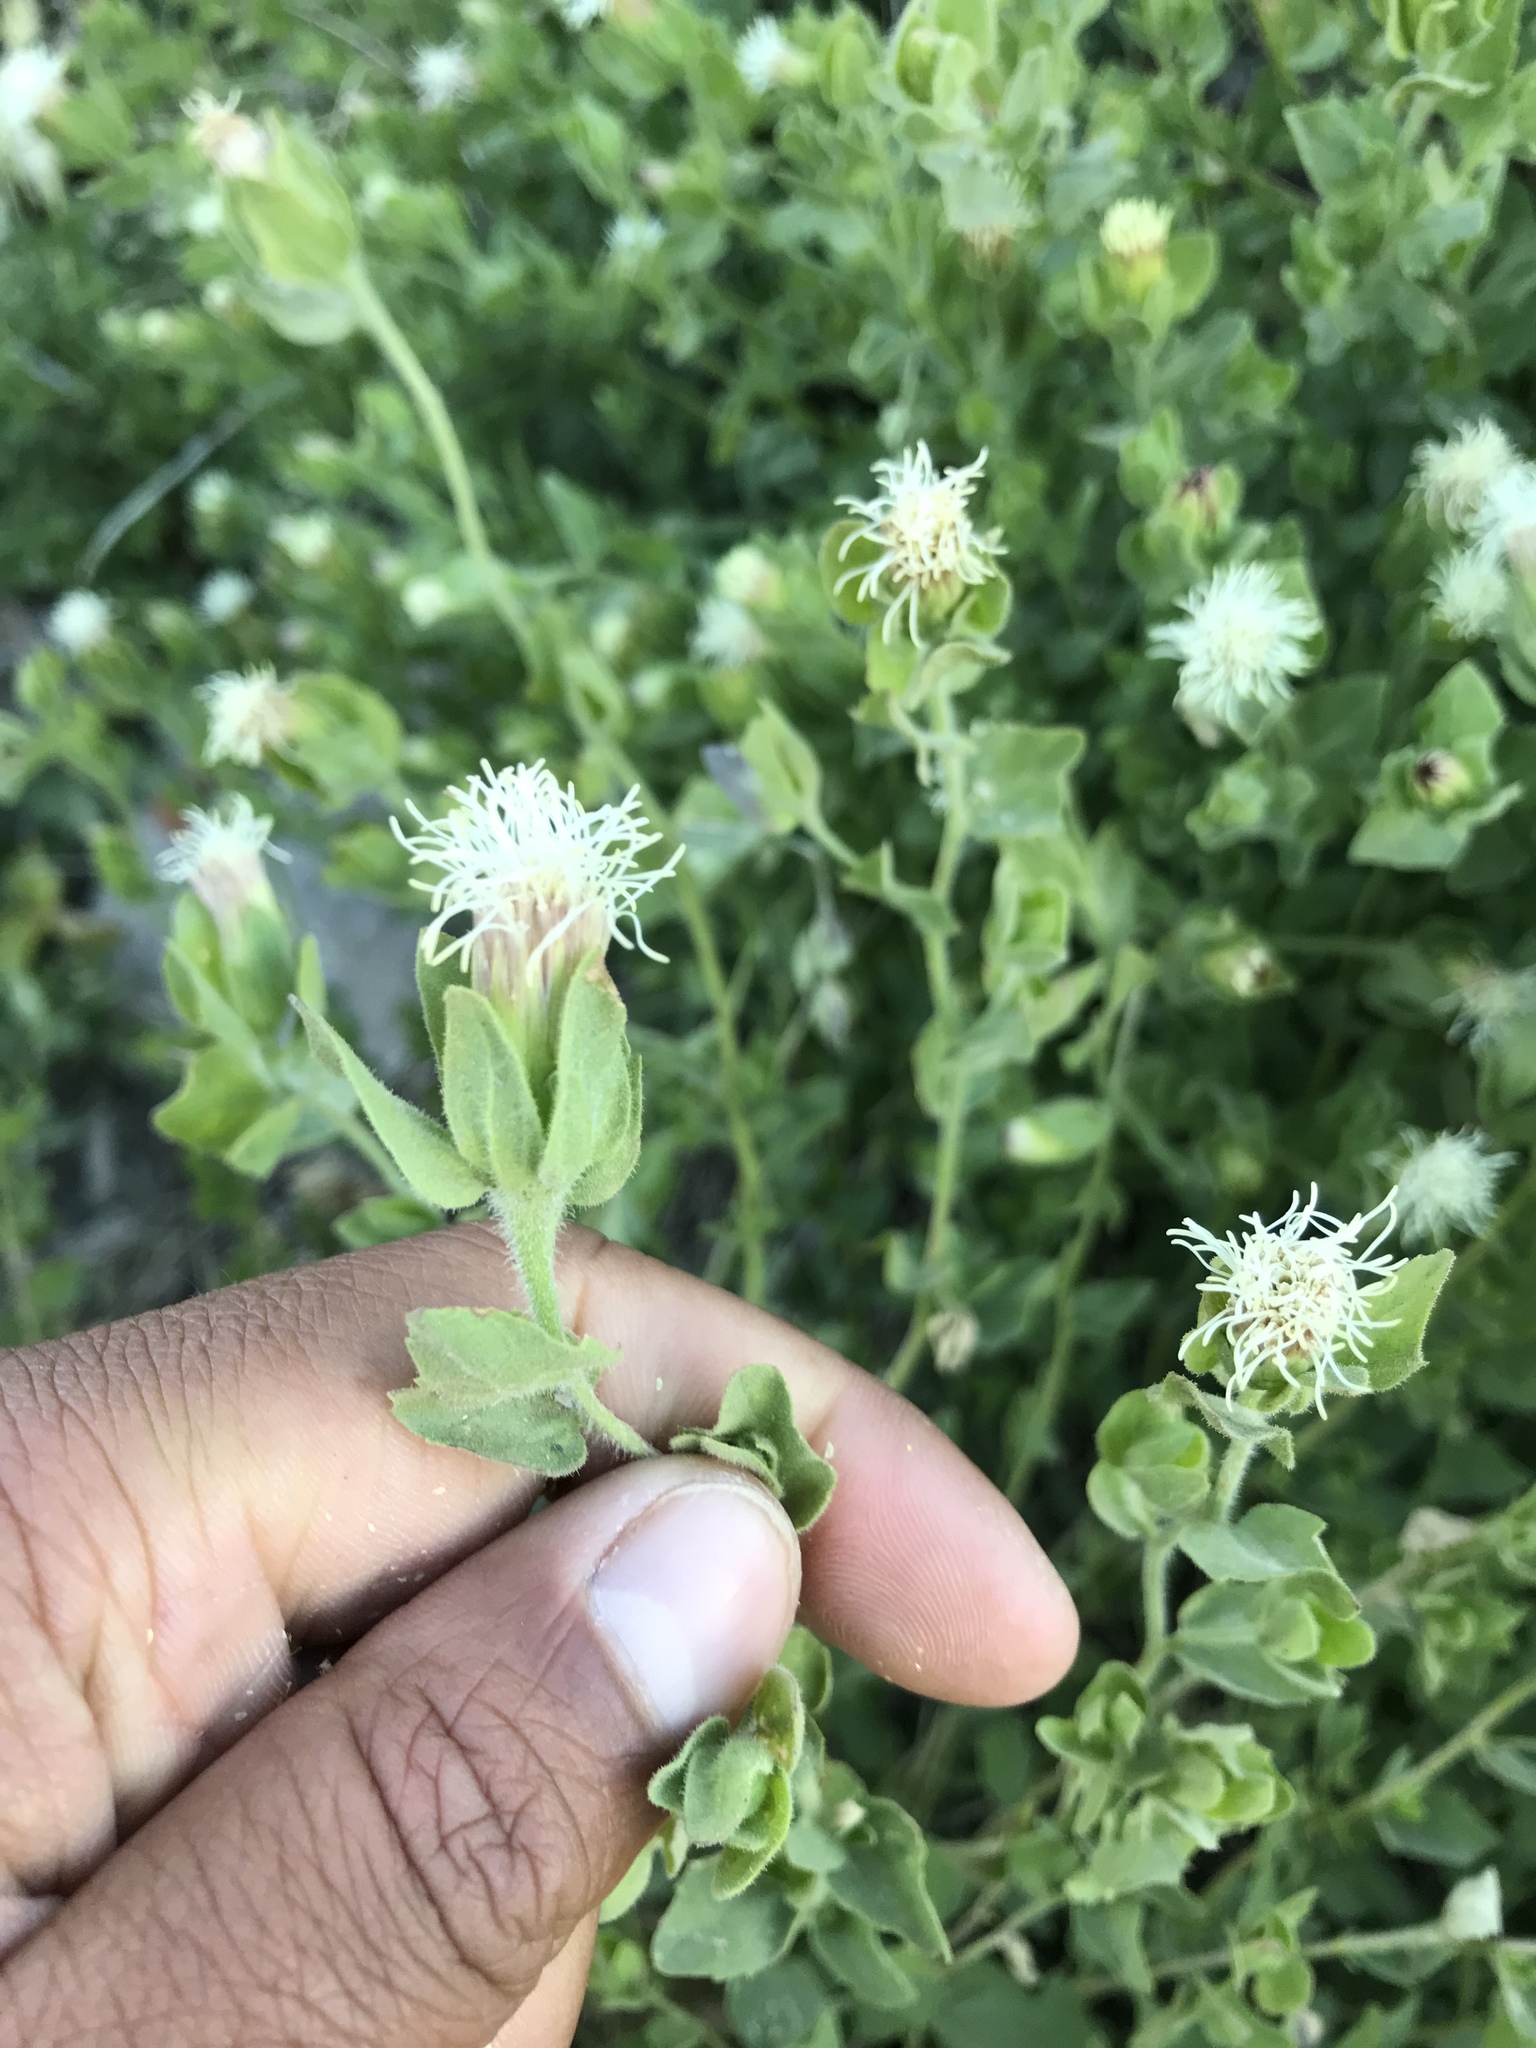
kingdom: Plantae
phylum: Tracheophyta
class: Magnoliopsida
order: Asterales
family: Asteraceae
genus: Brickellia
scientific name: Brickellia greenei
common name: Greene's brickellbush
